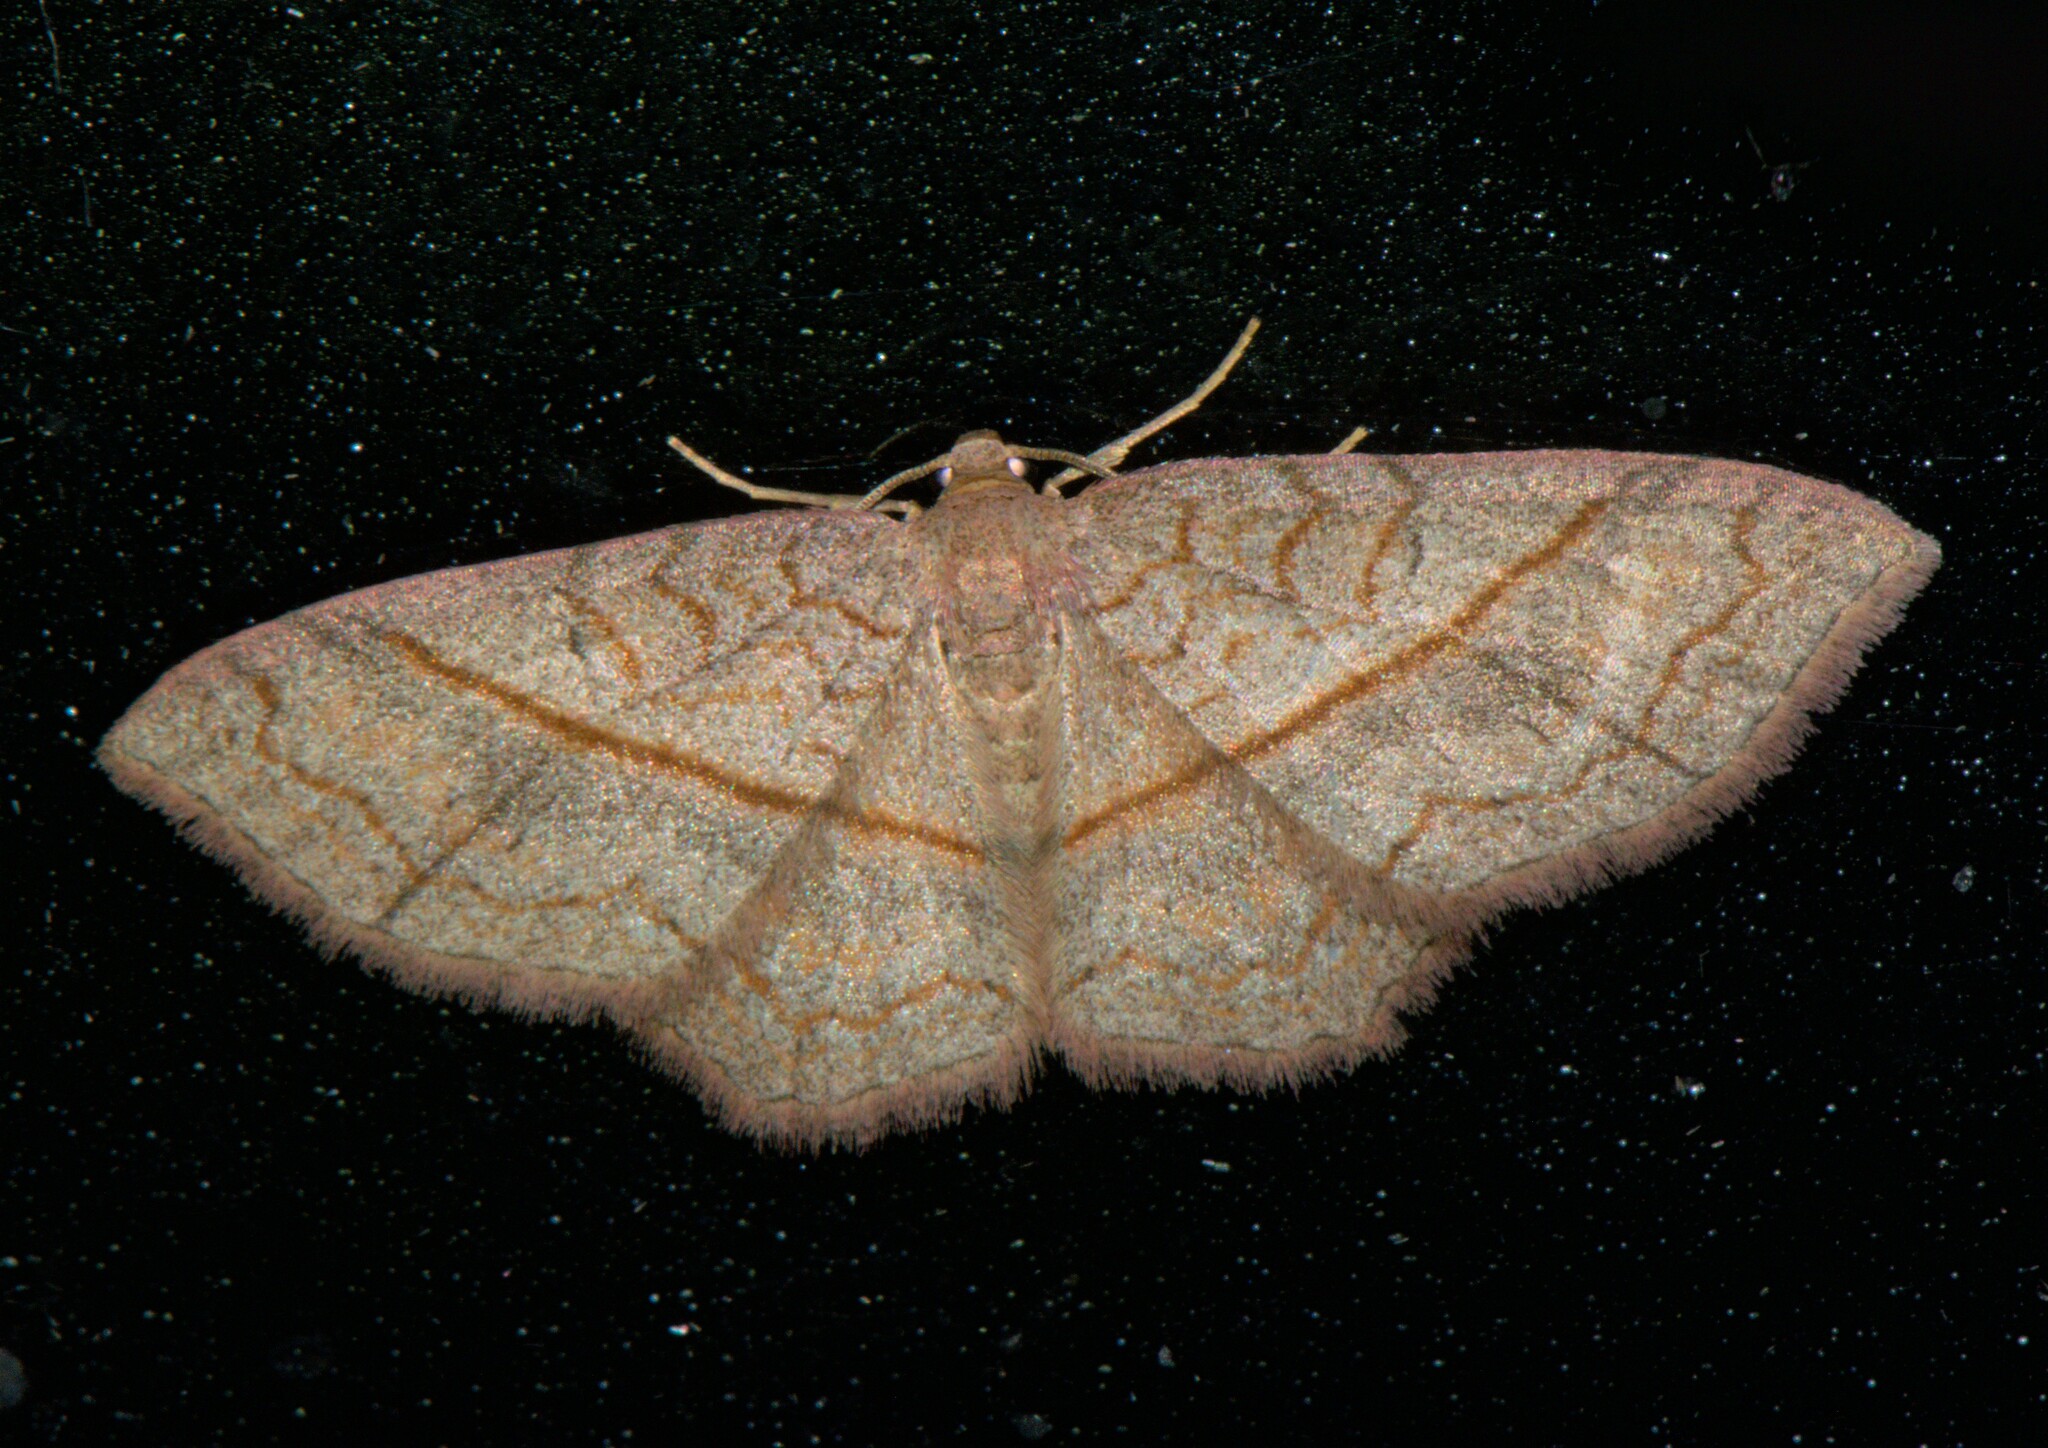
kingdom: Animalia
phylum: Arthropoda
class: Insecta
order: Lepidoptera
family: Geometridae
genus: Hydrelia
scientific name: Hydrelia sericea
